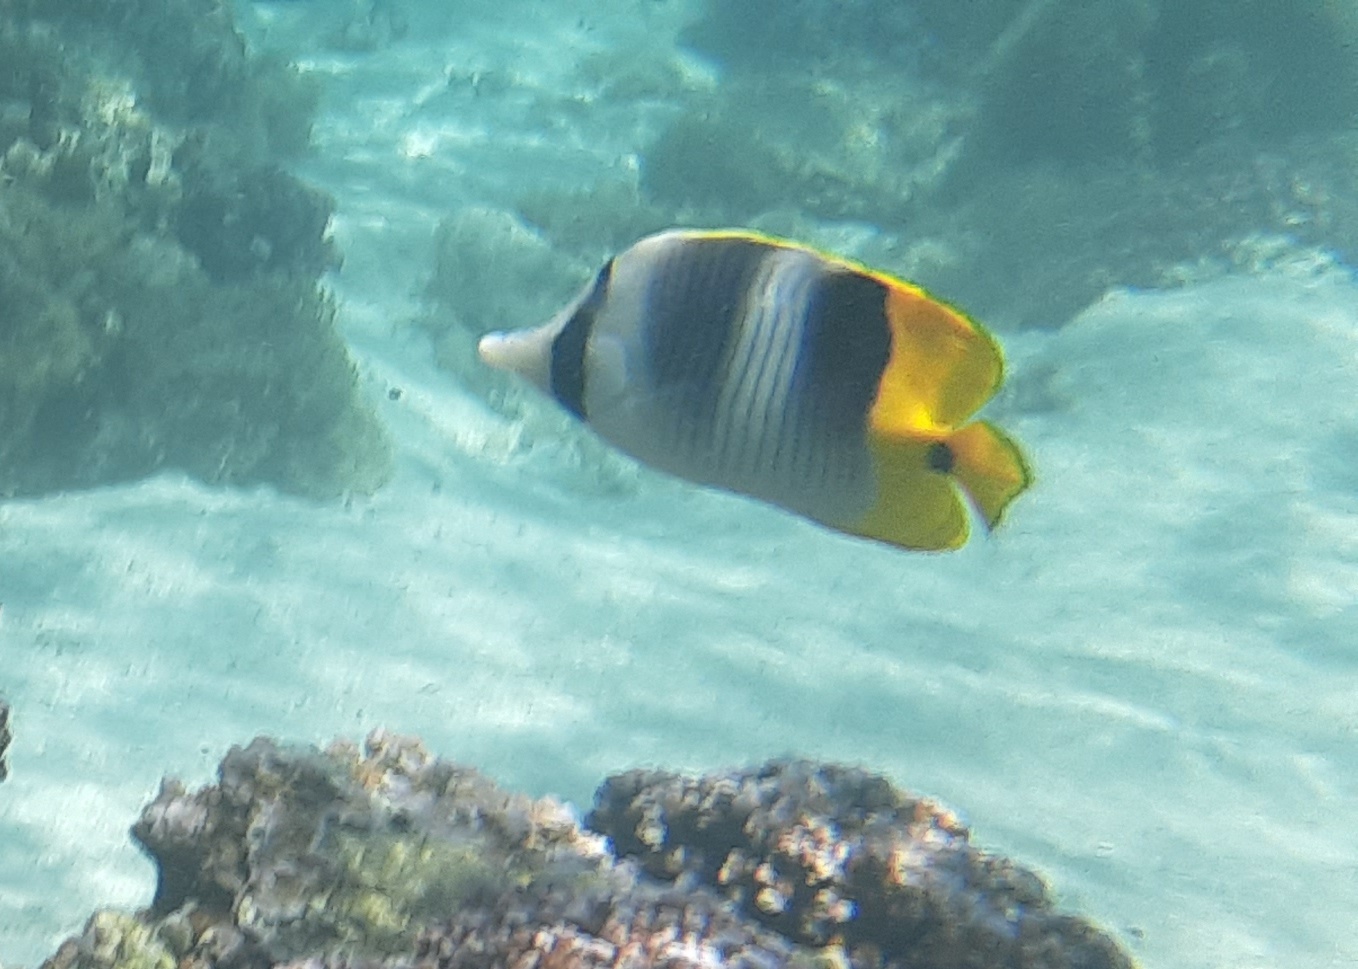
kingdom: Animalia
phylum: Chordata
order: Perciformes
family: Chaetodontidae
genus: Chaetodon
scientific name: Chaetodon ulietensis
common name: Pacific double-saddle butterflyfish
